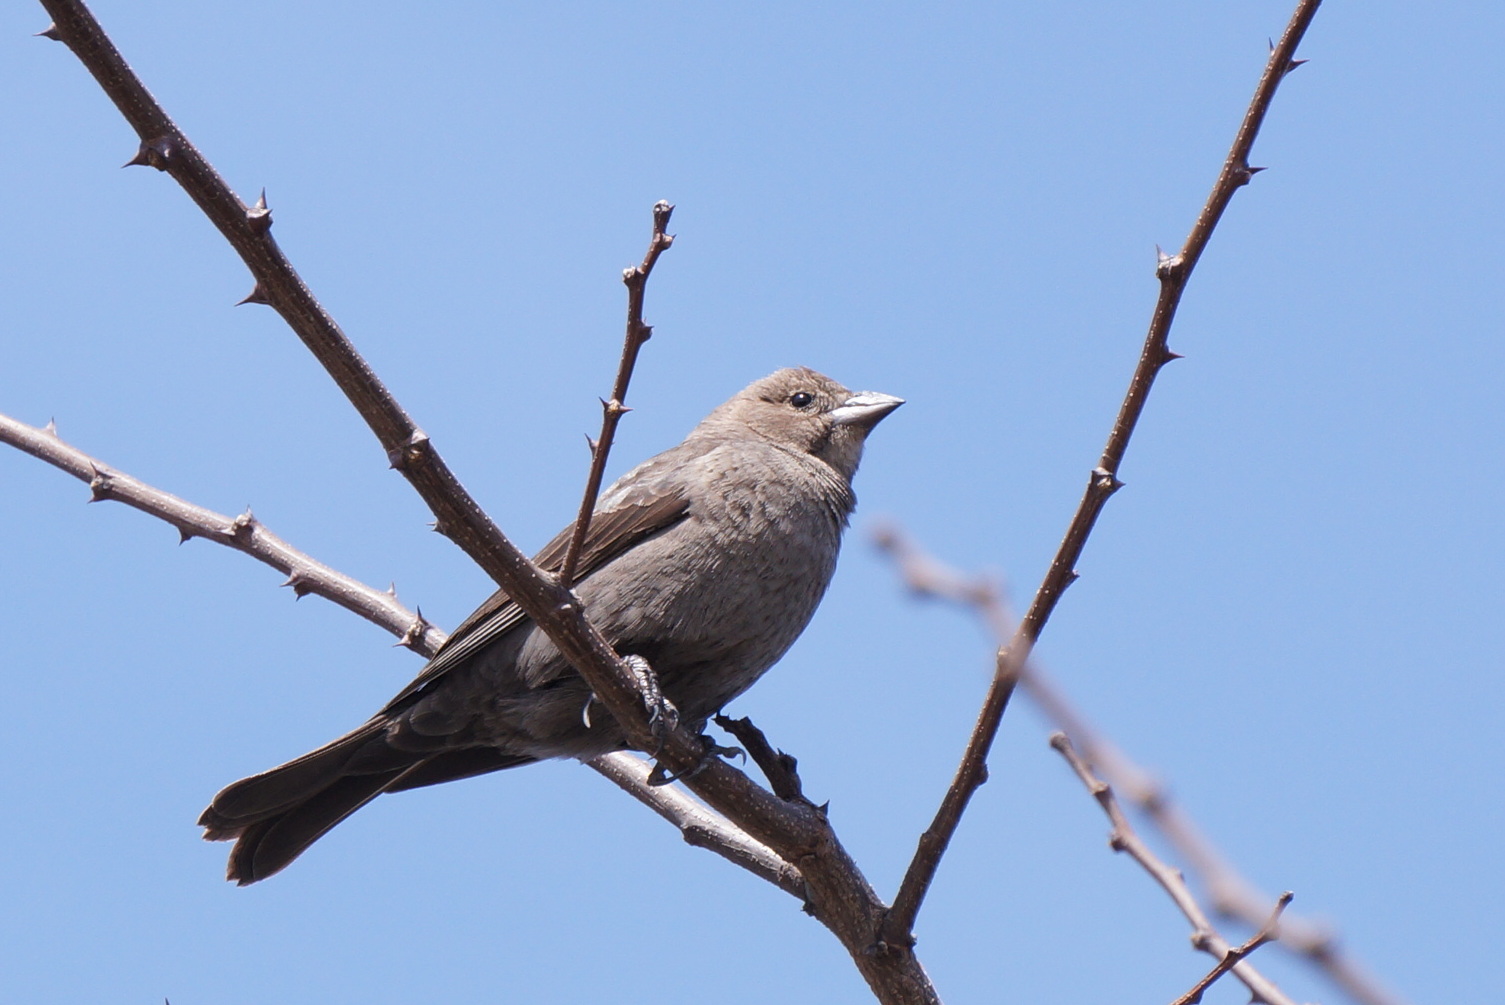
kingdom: Animalia
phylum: Chordata
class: Aves
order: Passeriformes
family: Icteridae
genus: Molothrus
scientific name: Molothrus ater
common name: Brown-headed cowbird
